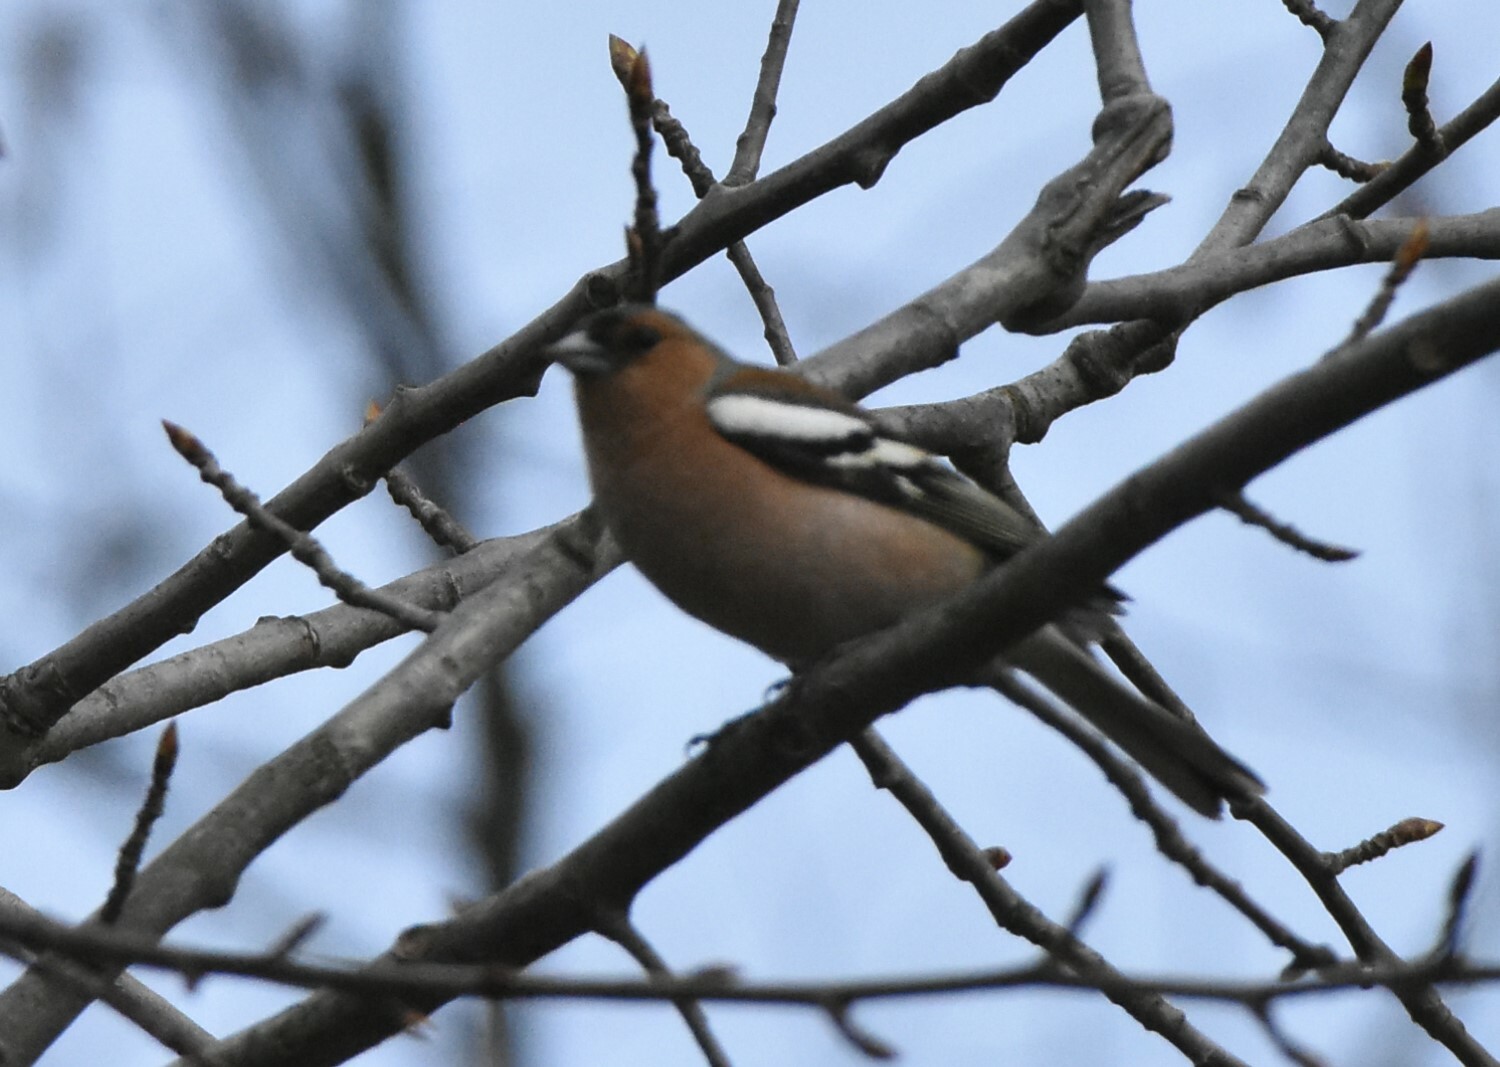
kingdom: Animalia
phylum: Chordata
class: Aves
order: Passeriformes
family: Fringillidae
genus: Fringilla
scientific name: Fringilla coelebs
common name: Common chaffinch
